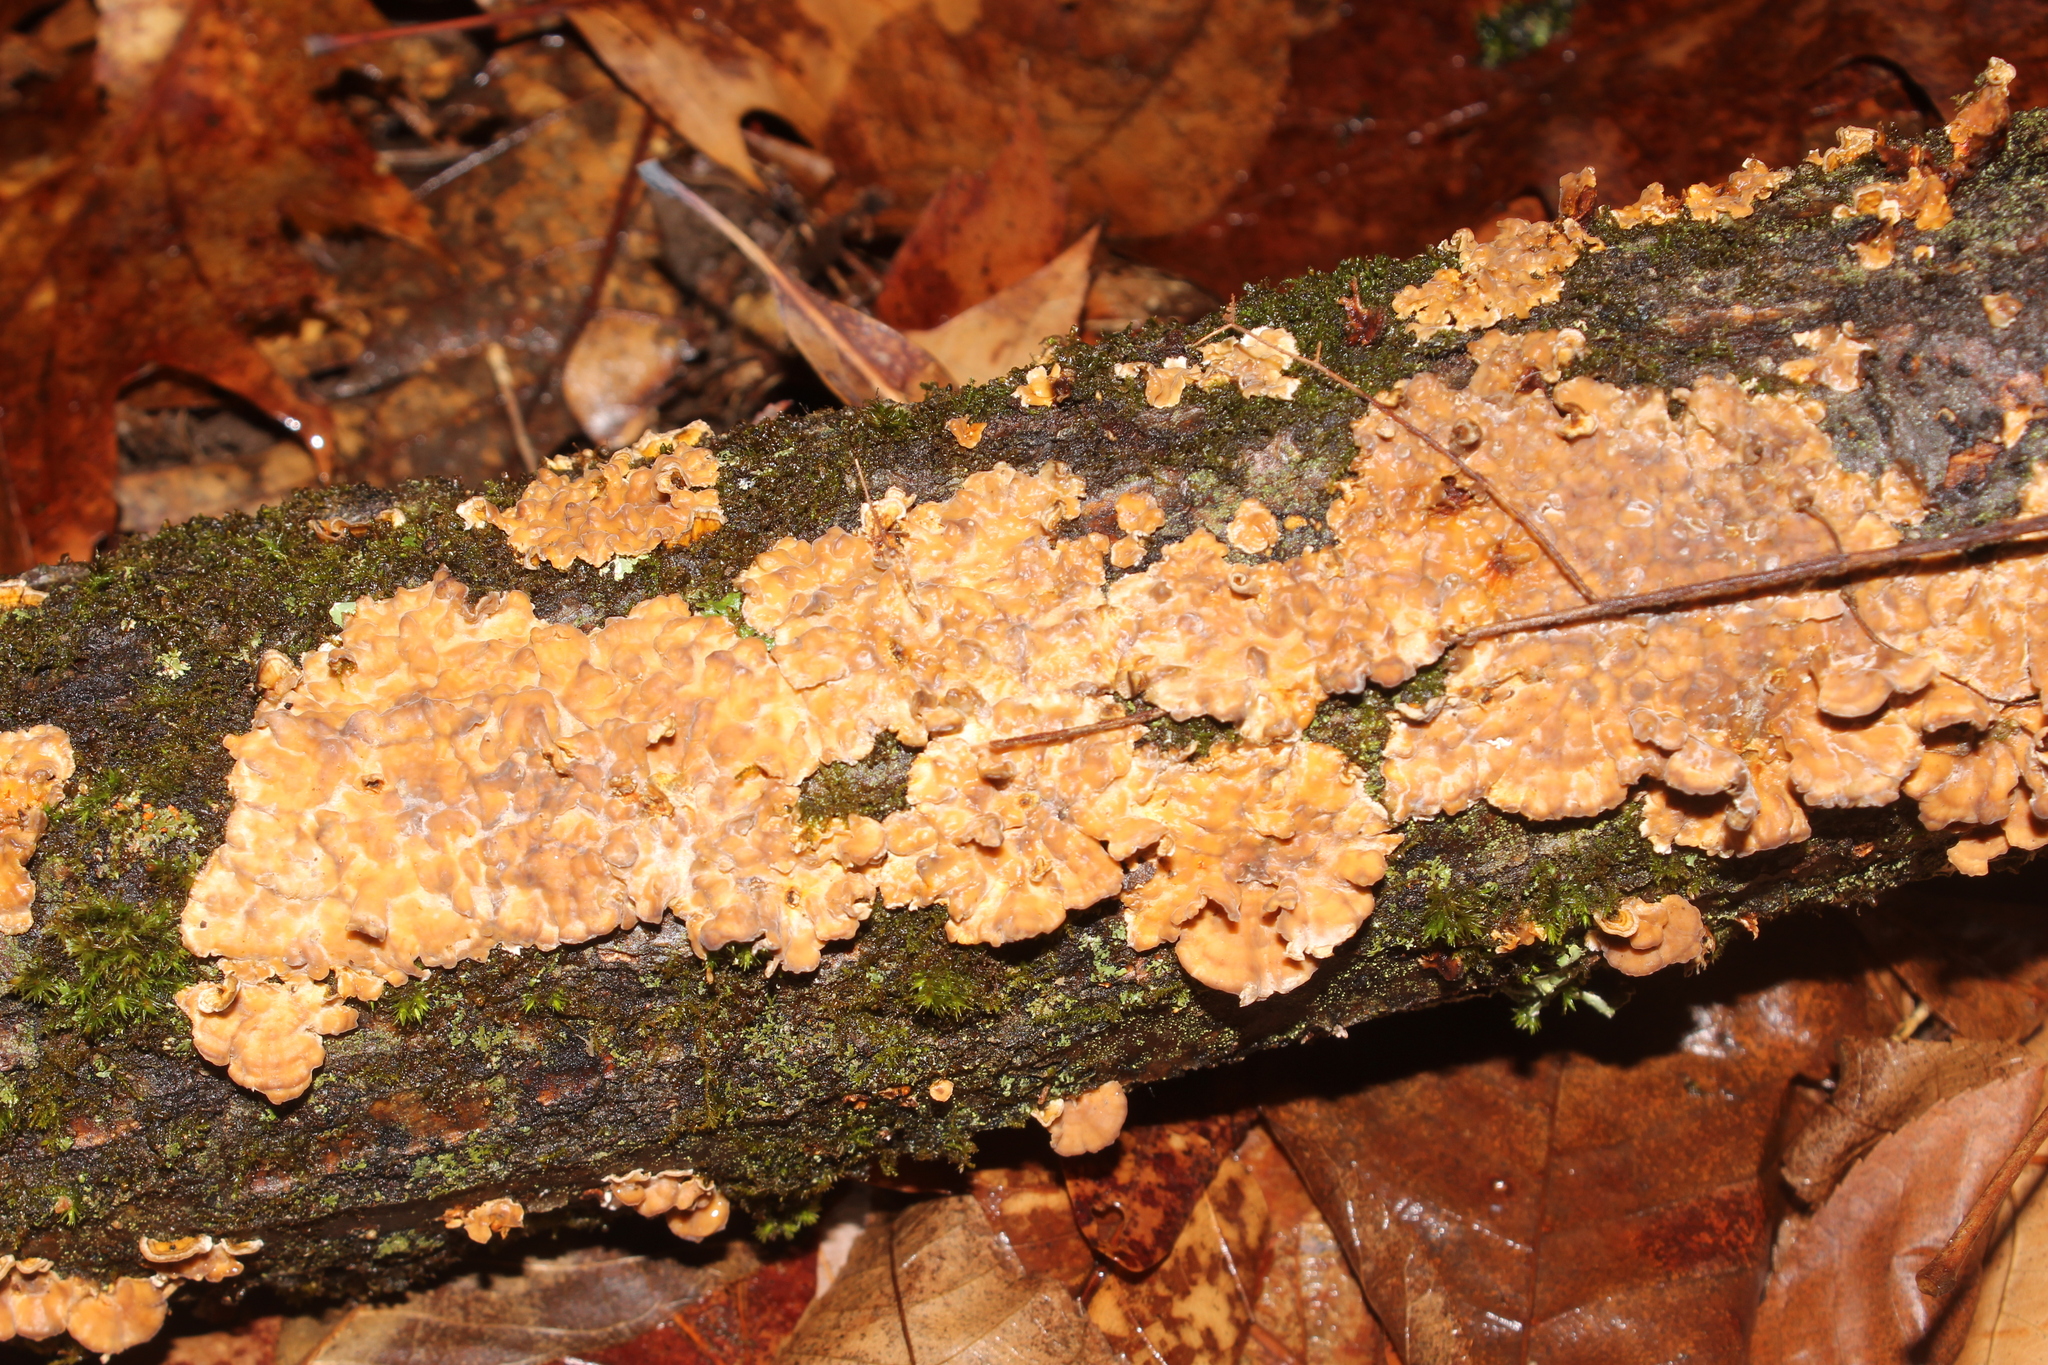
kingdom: Fungi
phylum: Basidiomycota
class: Agaricomycetes
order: Polyporales
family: Meruliaceae
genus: Phlebia
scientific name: Phlebia radiata
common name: Wrinkled crust
